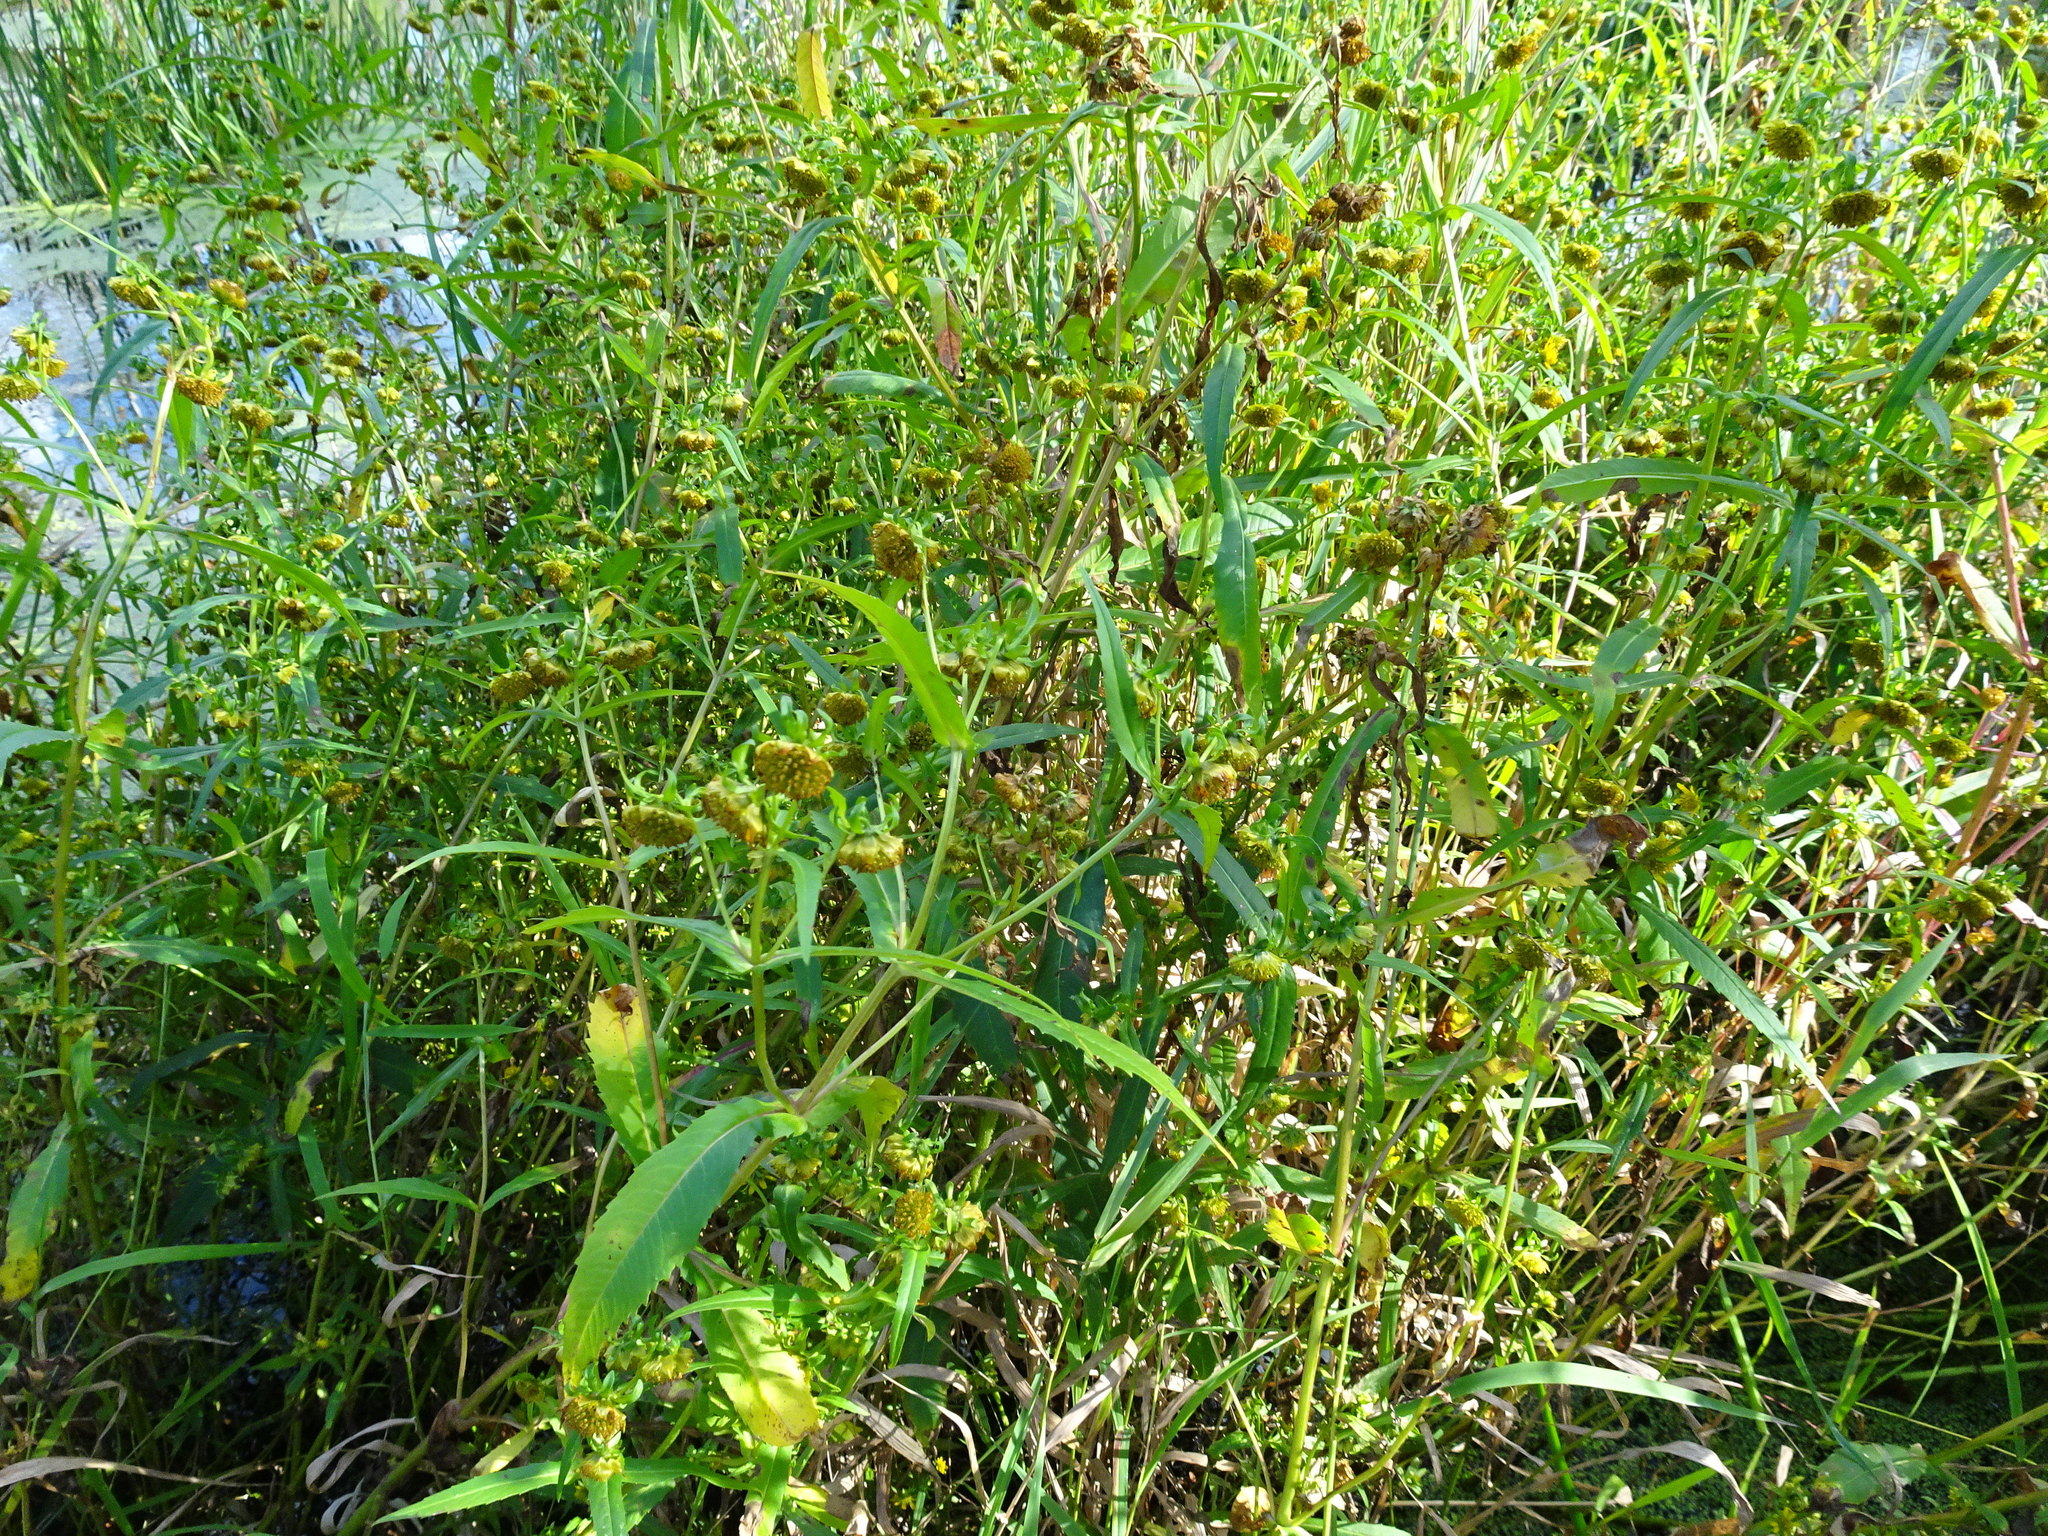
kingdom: Plantae
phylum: Tracheophyta
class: Magnoliopsida
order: Asterales
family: Asteraceae
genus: Bidens
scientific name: Bidens cernua
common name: Nodding bur-marigold
